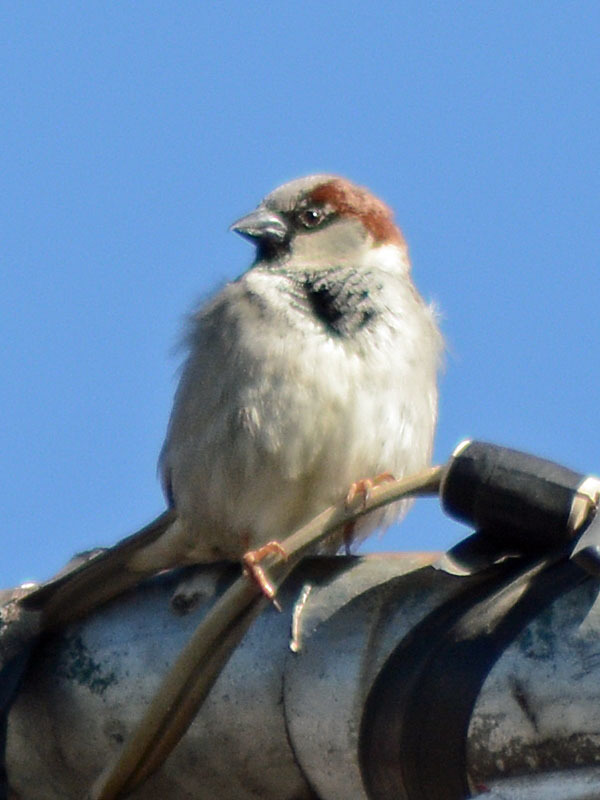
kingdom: Animalia
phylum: Chordata
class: Aves
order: Passeriformes
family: Passeridae
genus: Passer
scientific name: Passer domesticus
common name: House sparrow
